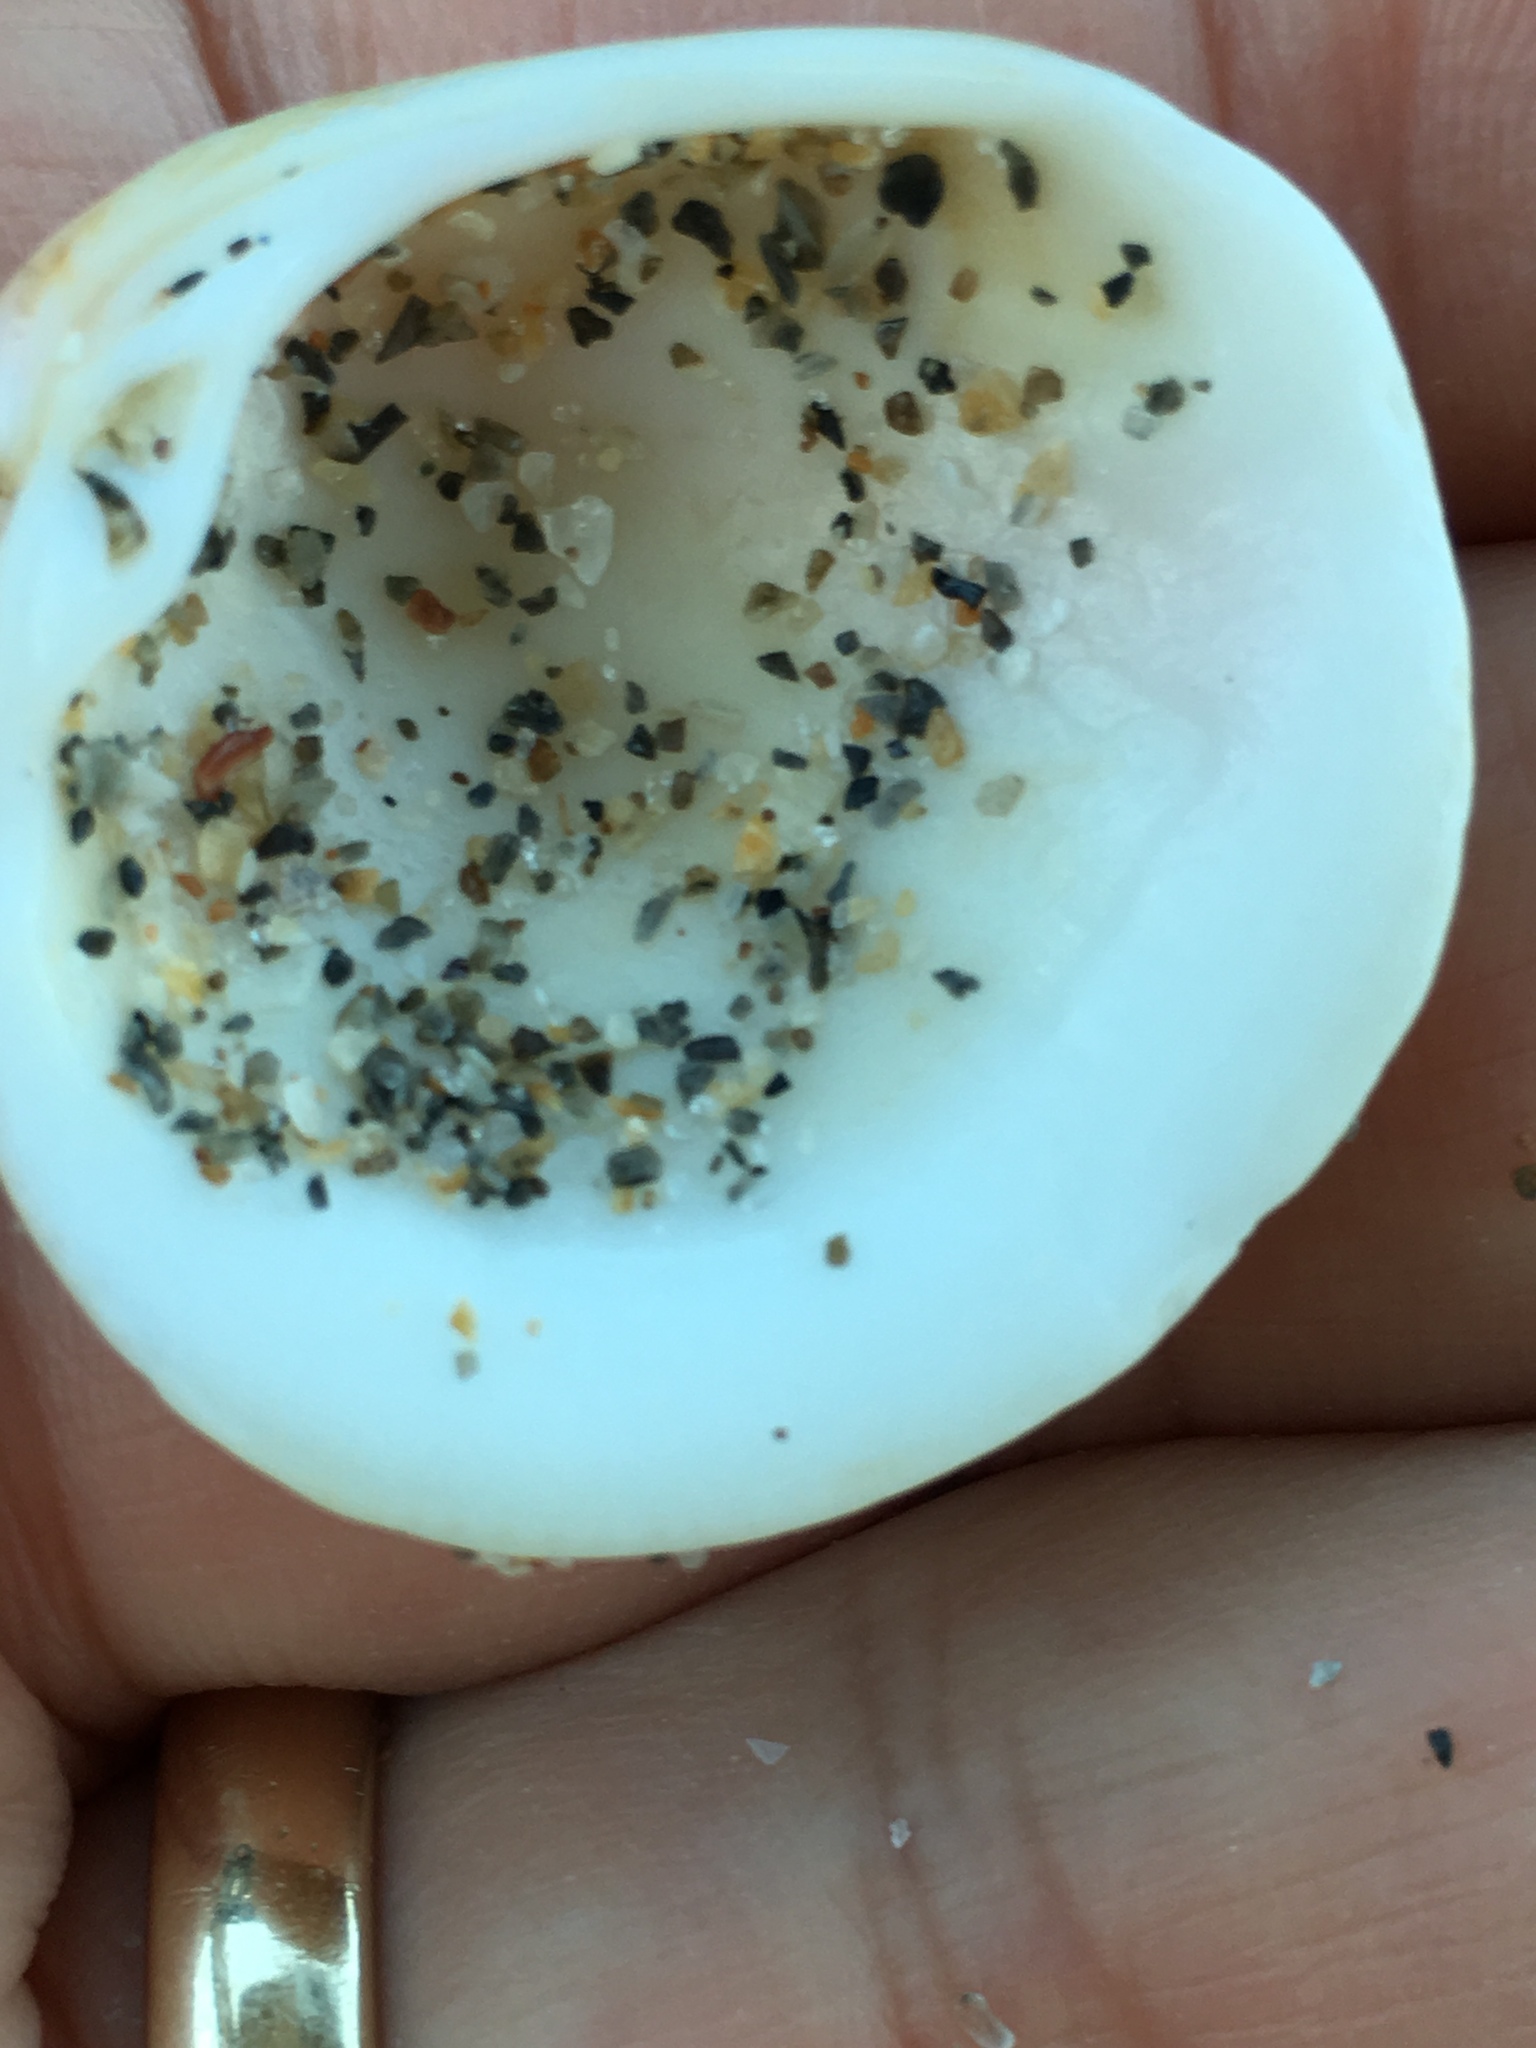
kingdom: Animalia
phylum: Mollusca
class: Bivalvia
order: Venerida
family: Veneridae
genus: Chionopsis
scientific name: Chionopsis intapurpurea
